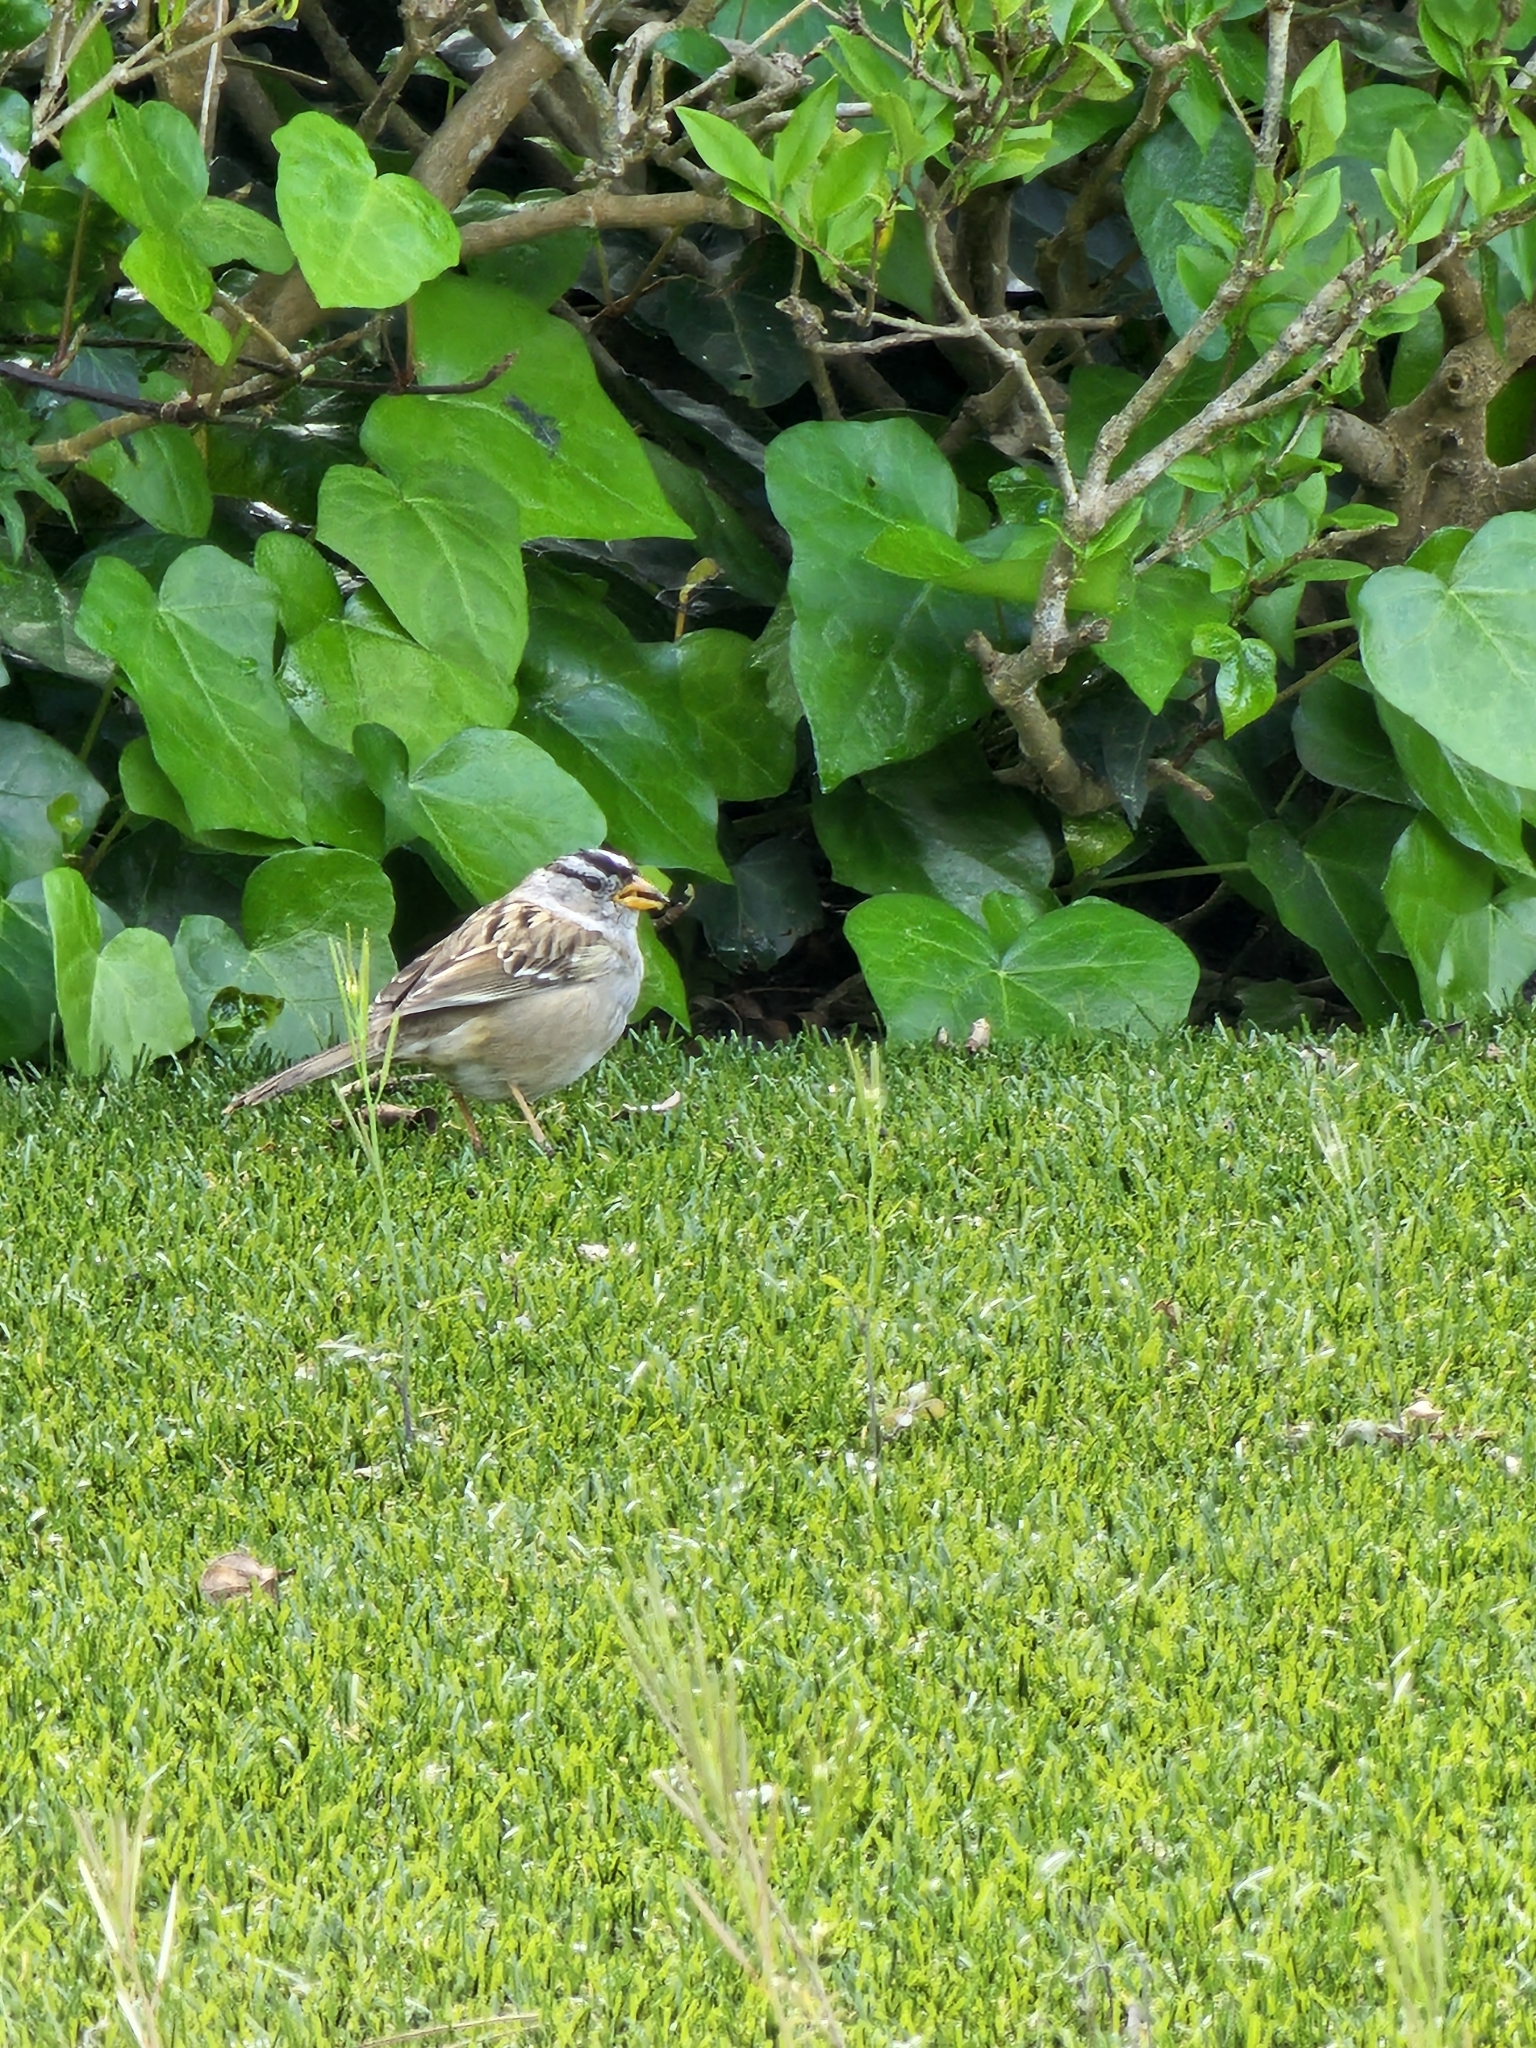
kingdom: Animalia
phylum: Chordata
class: Aves
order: Passeriformes
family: Passerellidae
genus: Zonotrichia
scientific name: Zonotrichia leucophrys
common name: White-crowned sparrow
